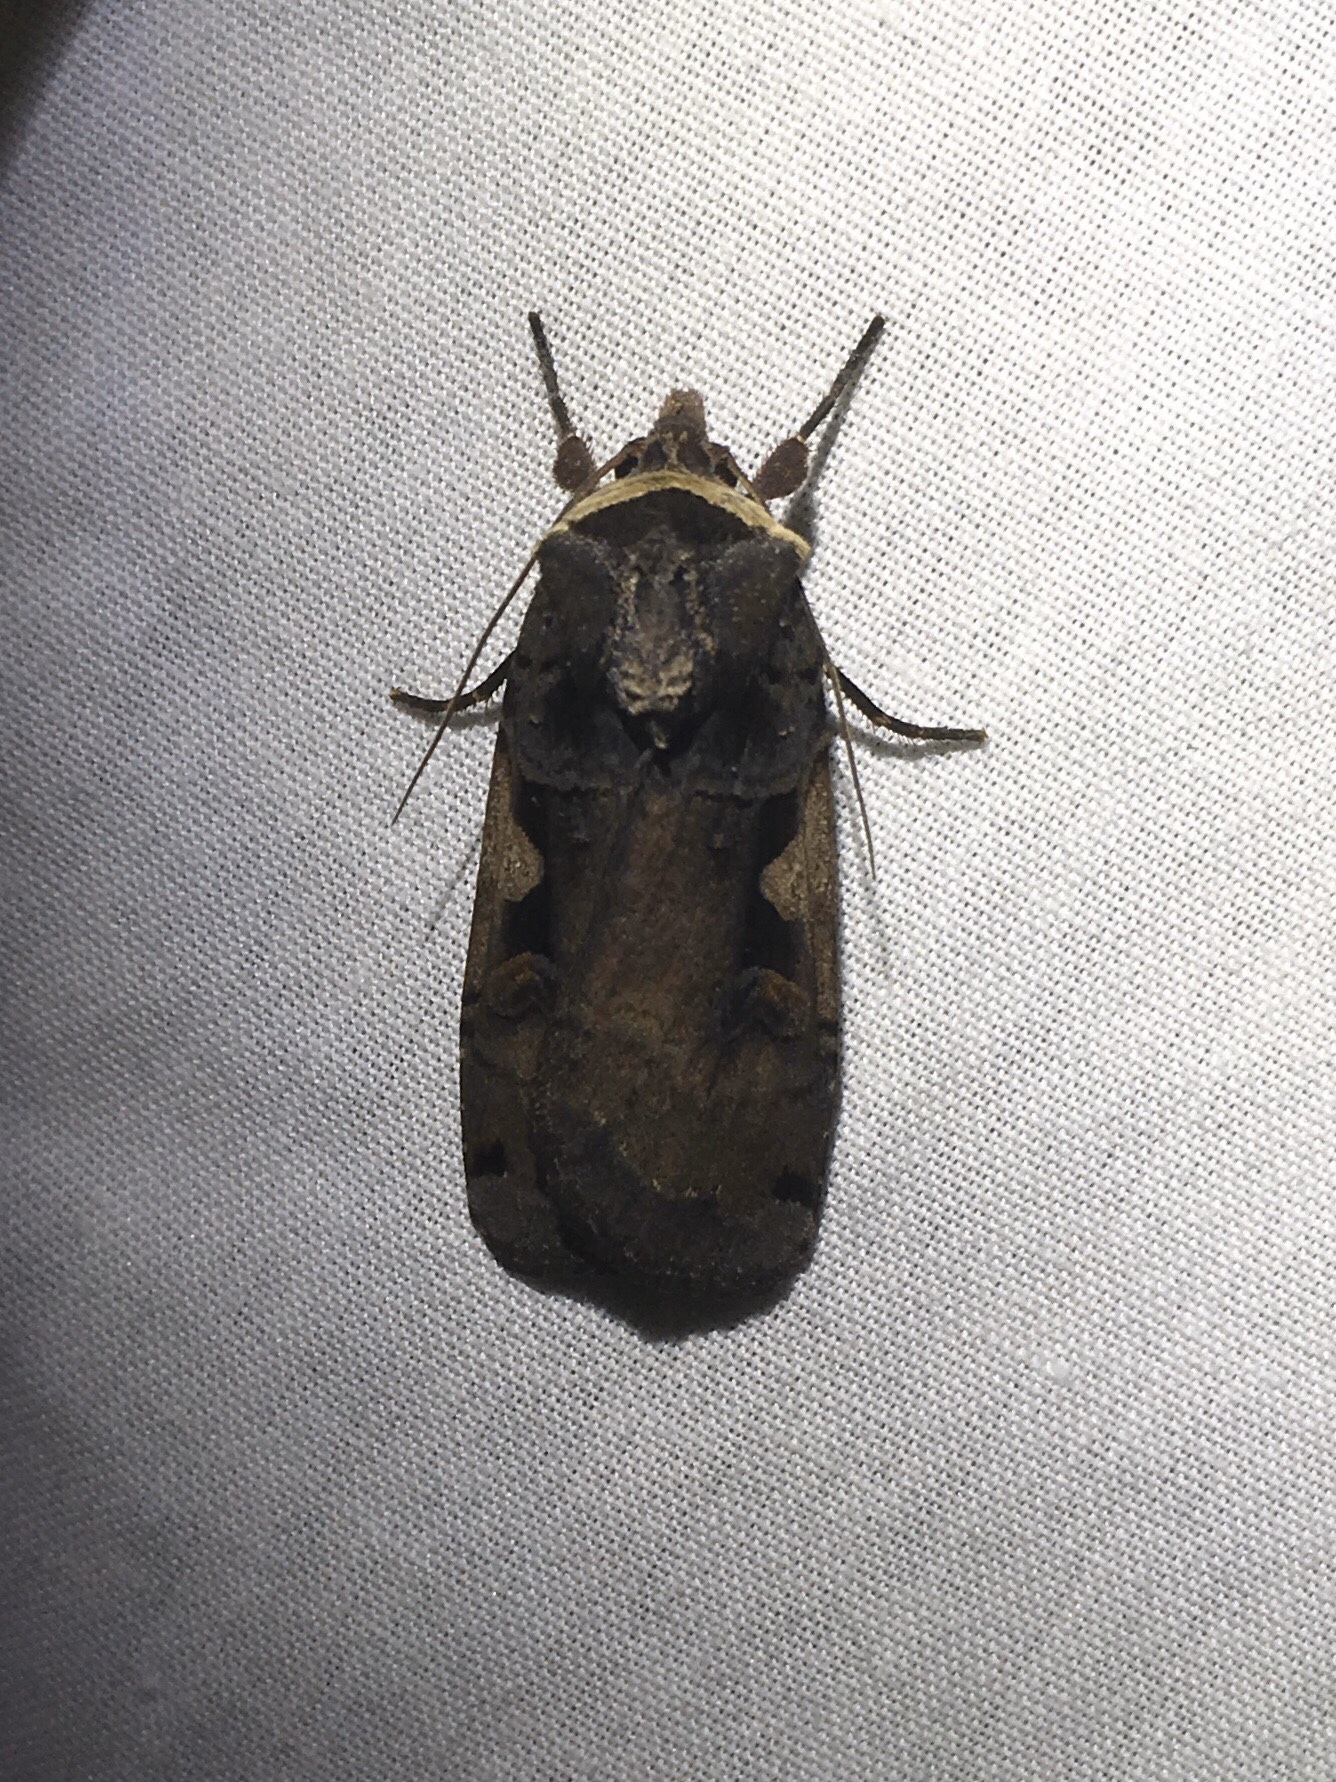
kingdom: Animalia
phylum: Arthropoda
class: Insecta
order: Lepidoptera
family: Noctuidae
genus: Xestia
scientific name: Xestia
